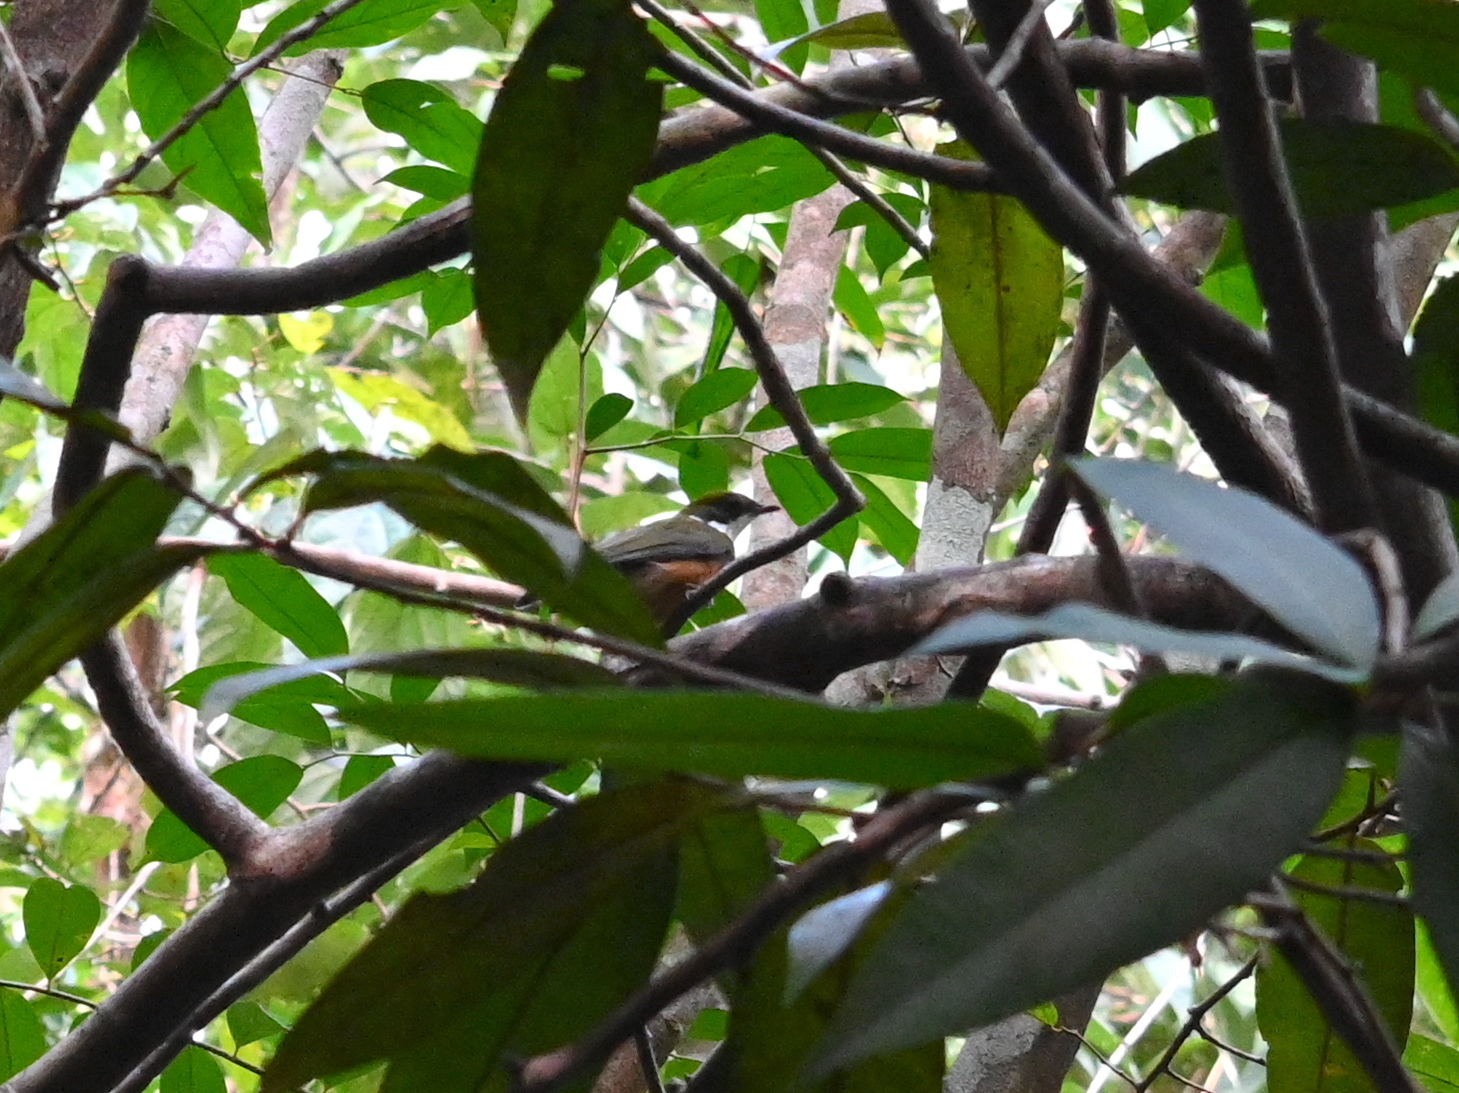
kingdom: Animalia
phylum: Chordata
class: Aves
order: Passeriformes
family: Pipridae
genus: Heterocercus
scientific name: Heterocercus flavivertex
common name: Yellow-crested manakin
